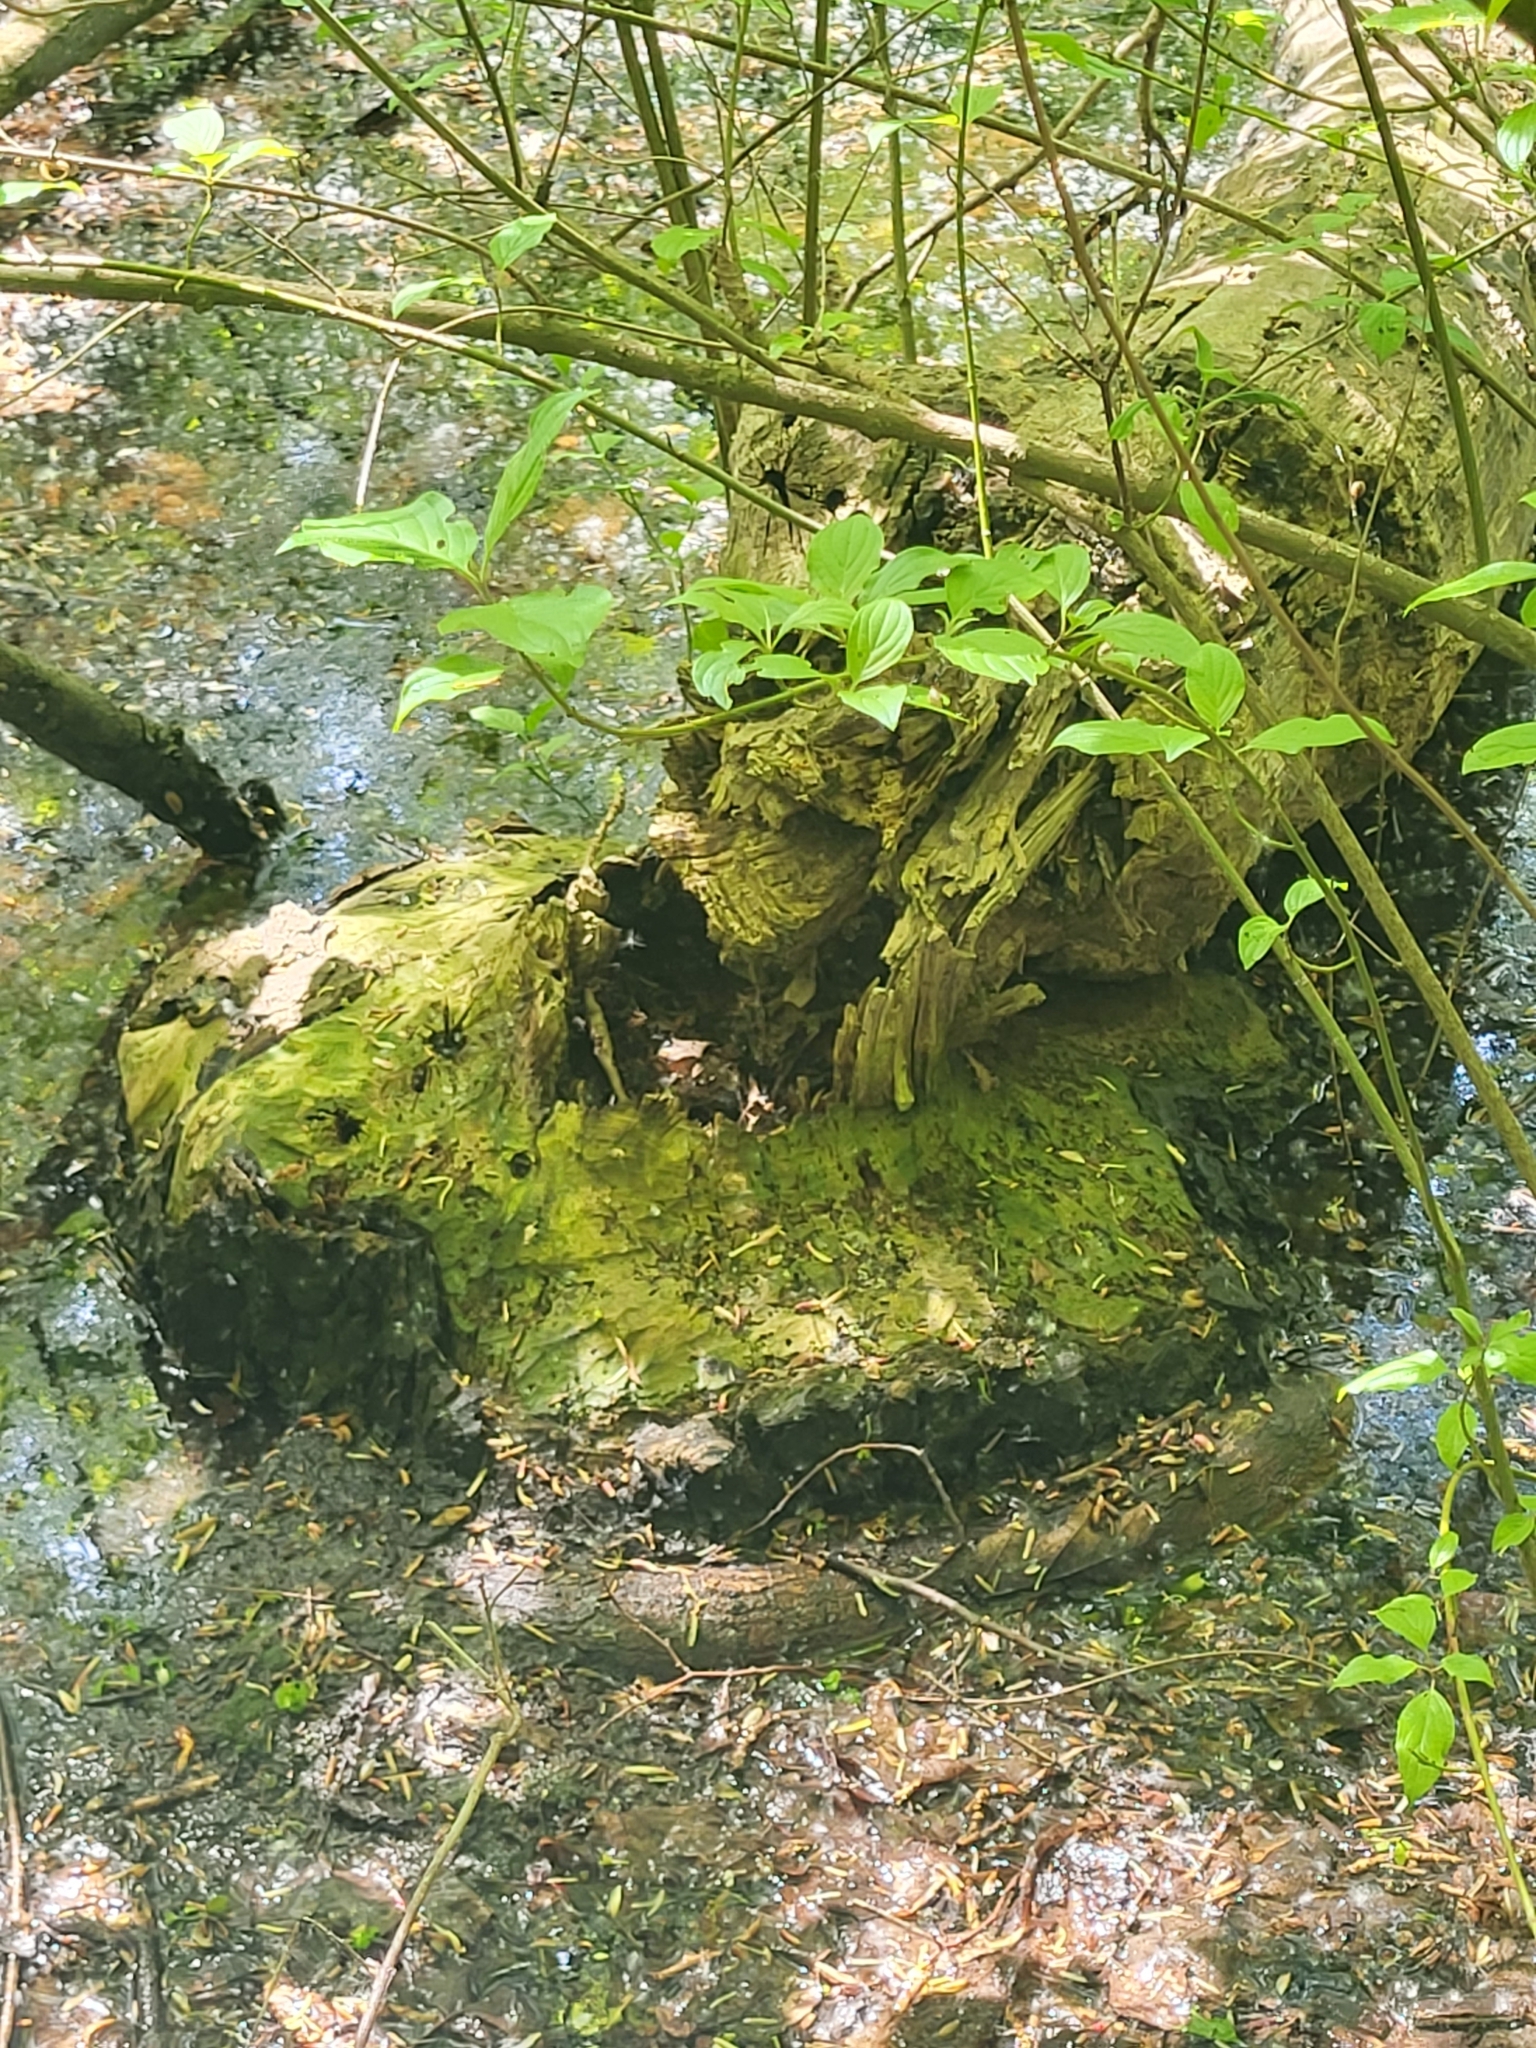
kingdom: Animalia
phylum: Chordata
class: Mammalia
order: Rodentia
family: Castoridae
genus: Castor
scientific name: Castor fiber
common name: Eurasian beaver
